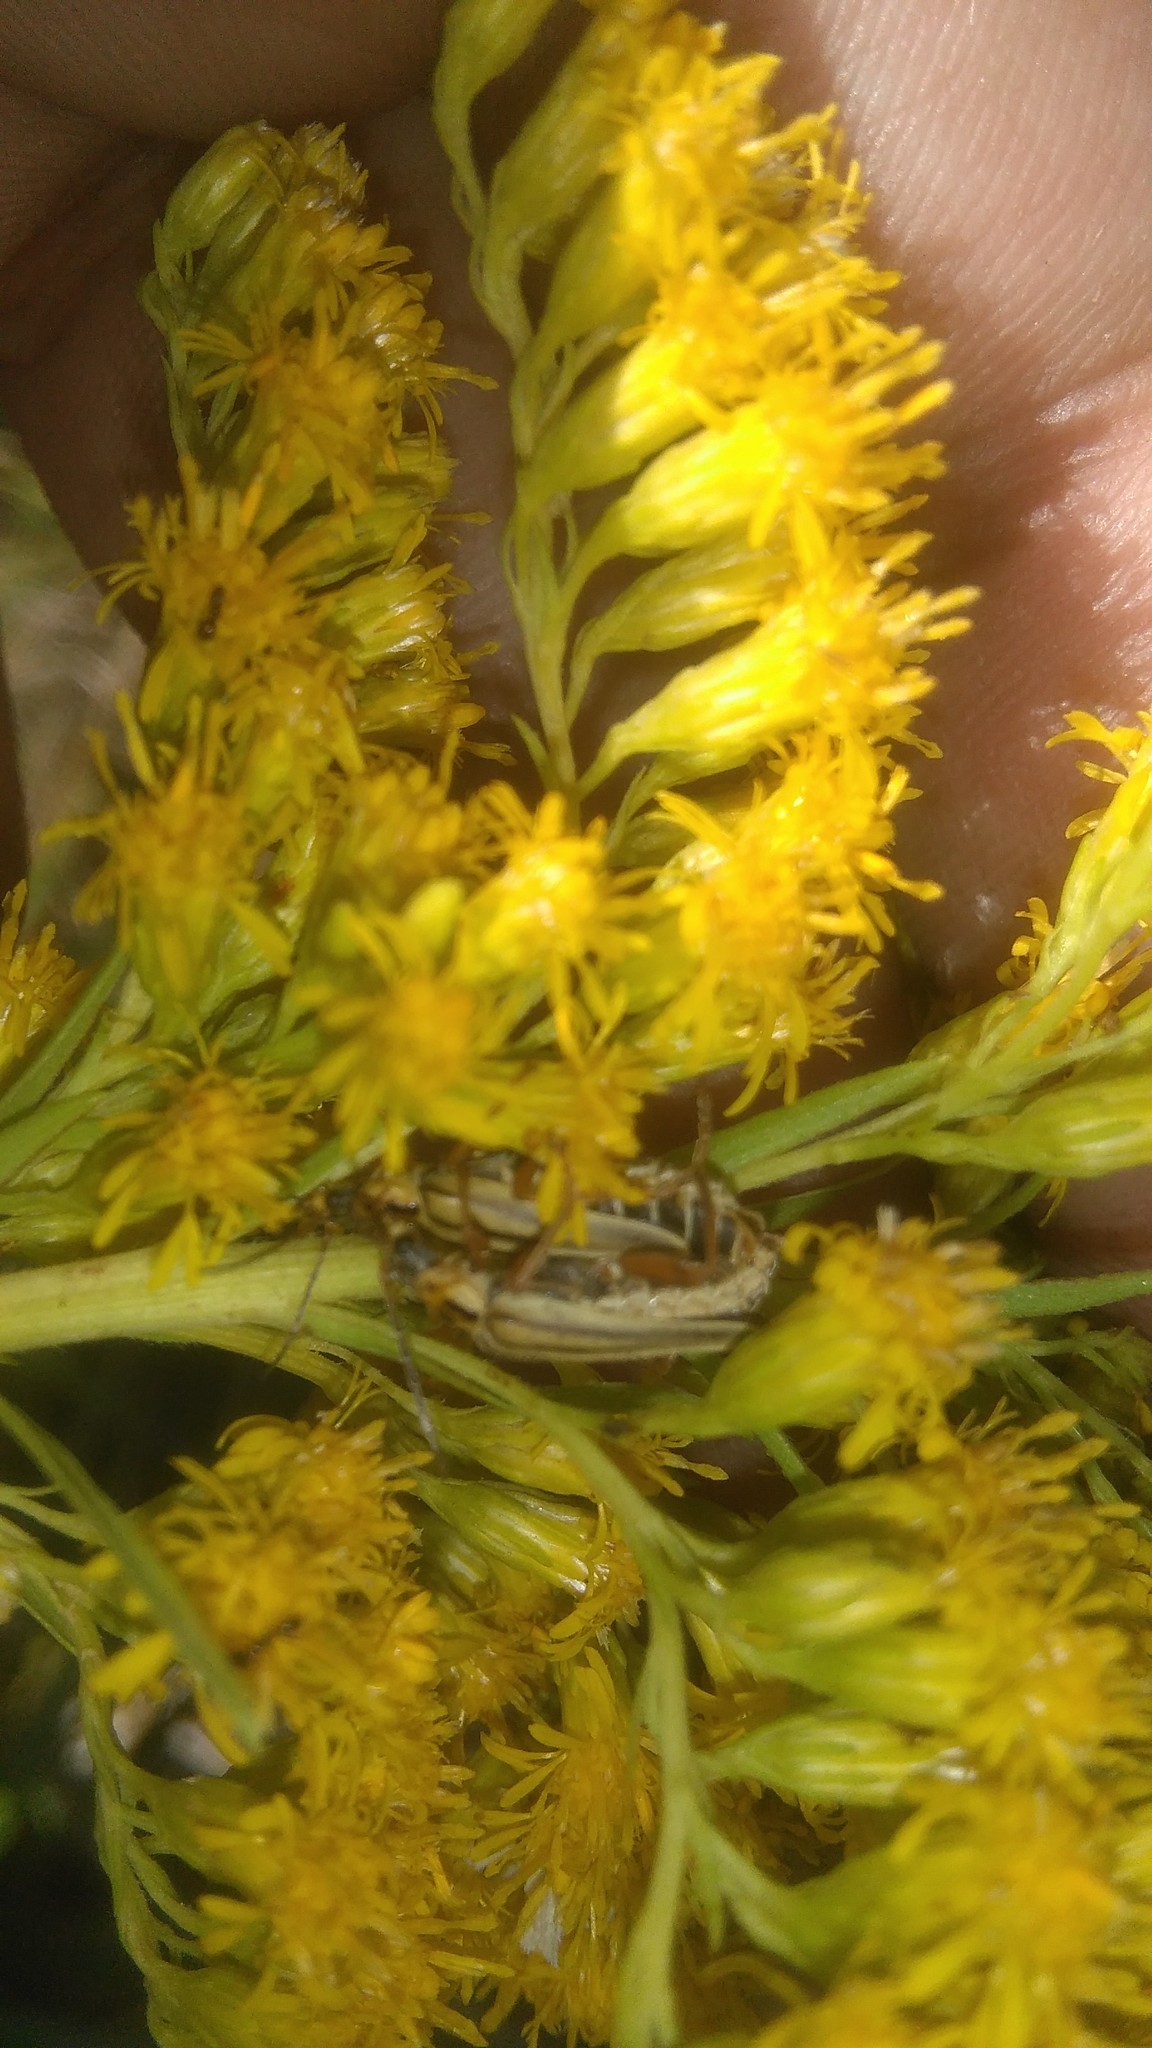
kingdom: Animalia
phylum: Arthropoda
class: Insecta
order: Coleoptera
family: Cantharidae
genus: Chauliognathus
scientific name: Chauliognathus
